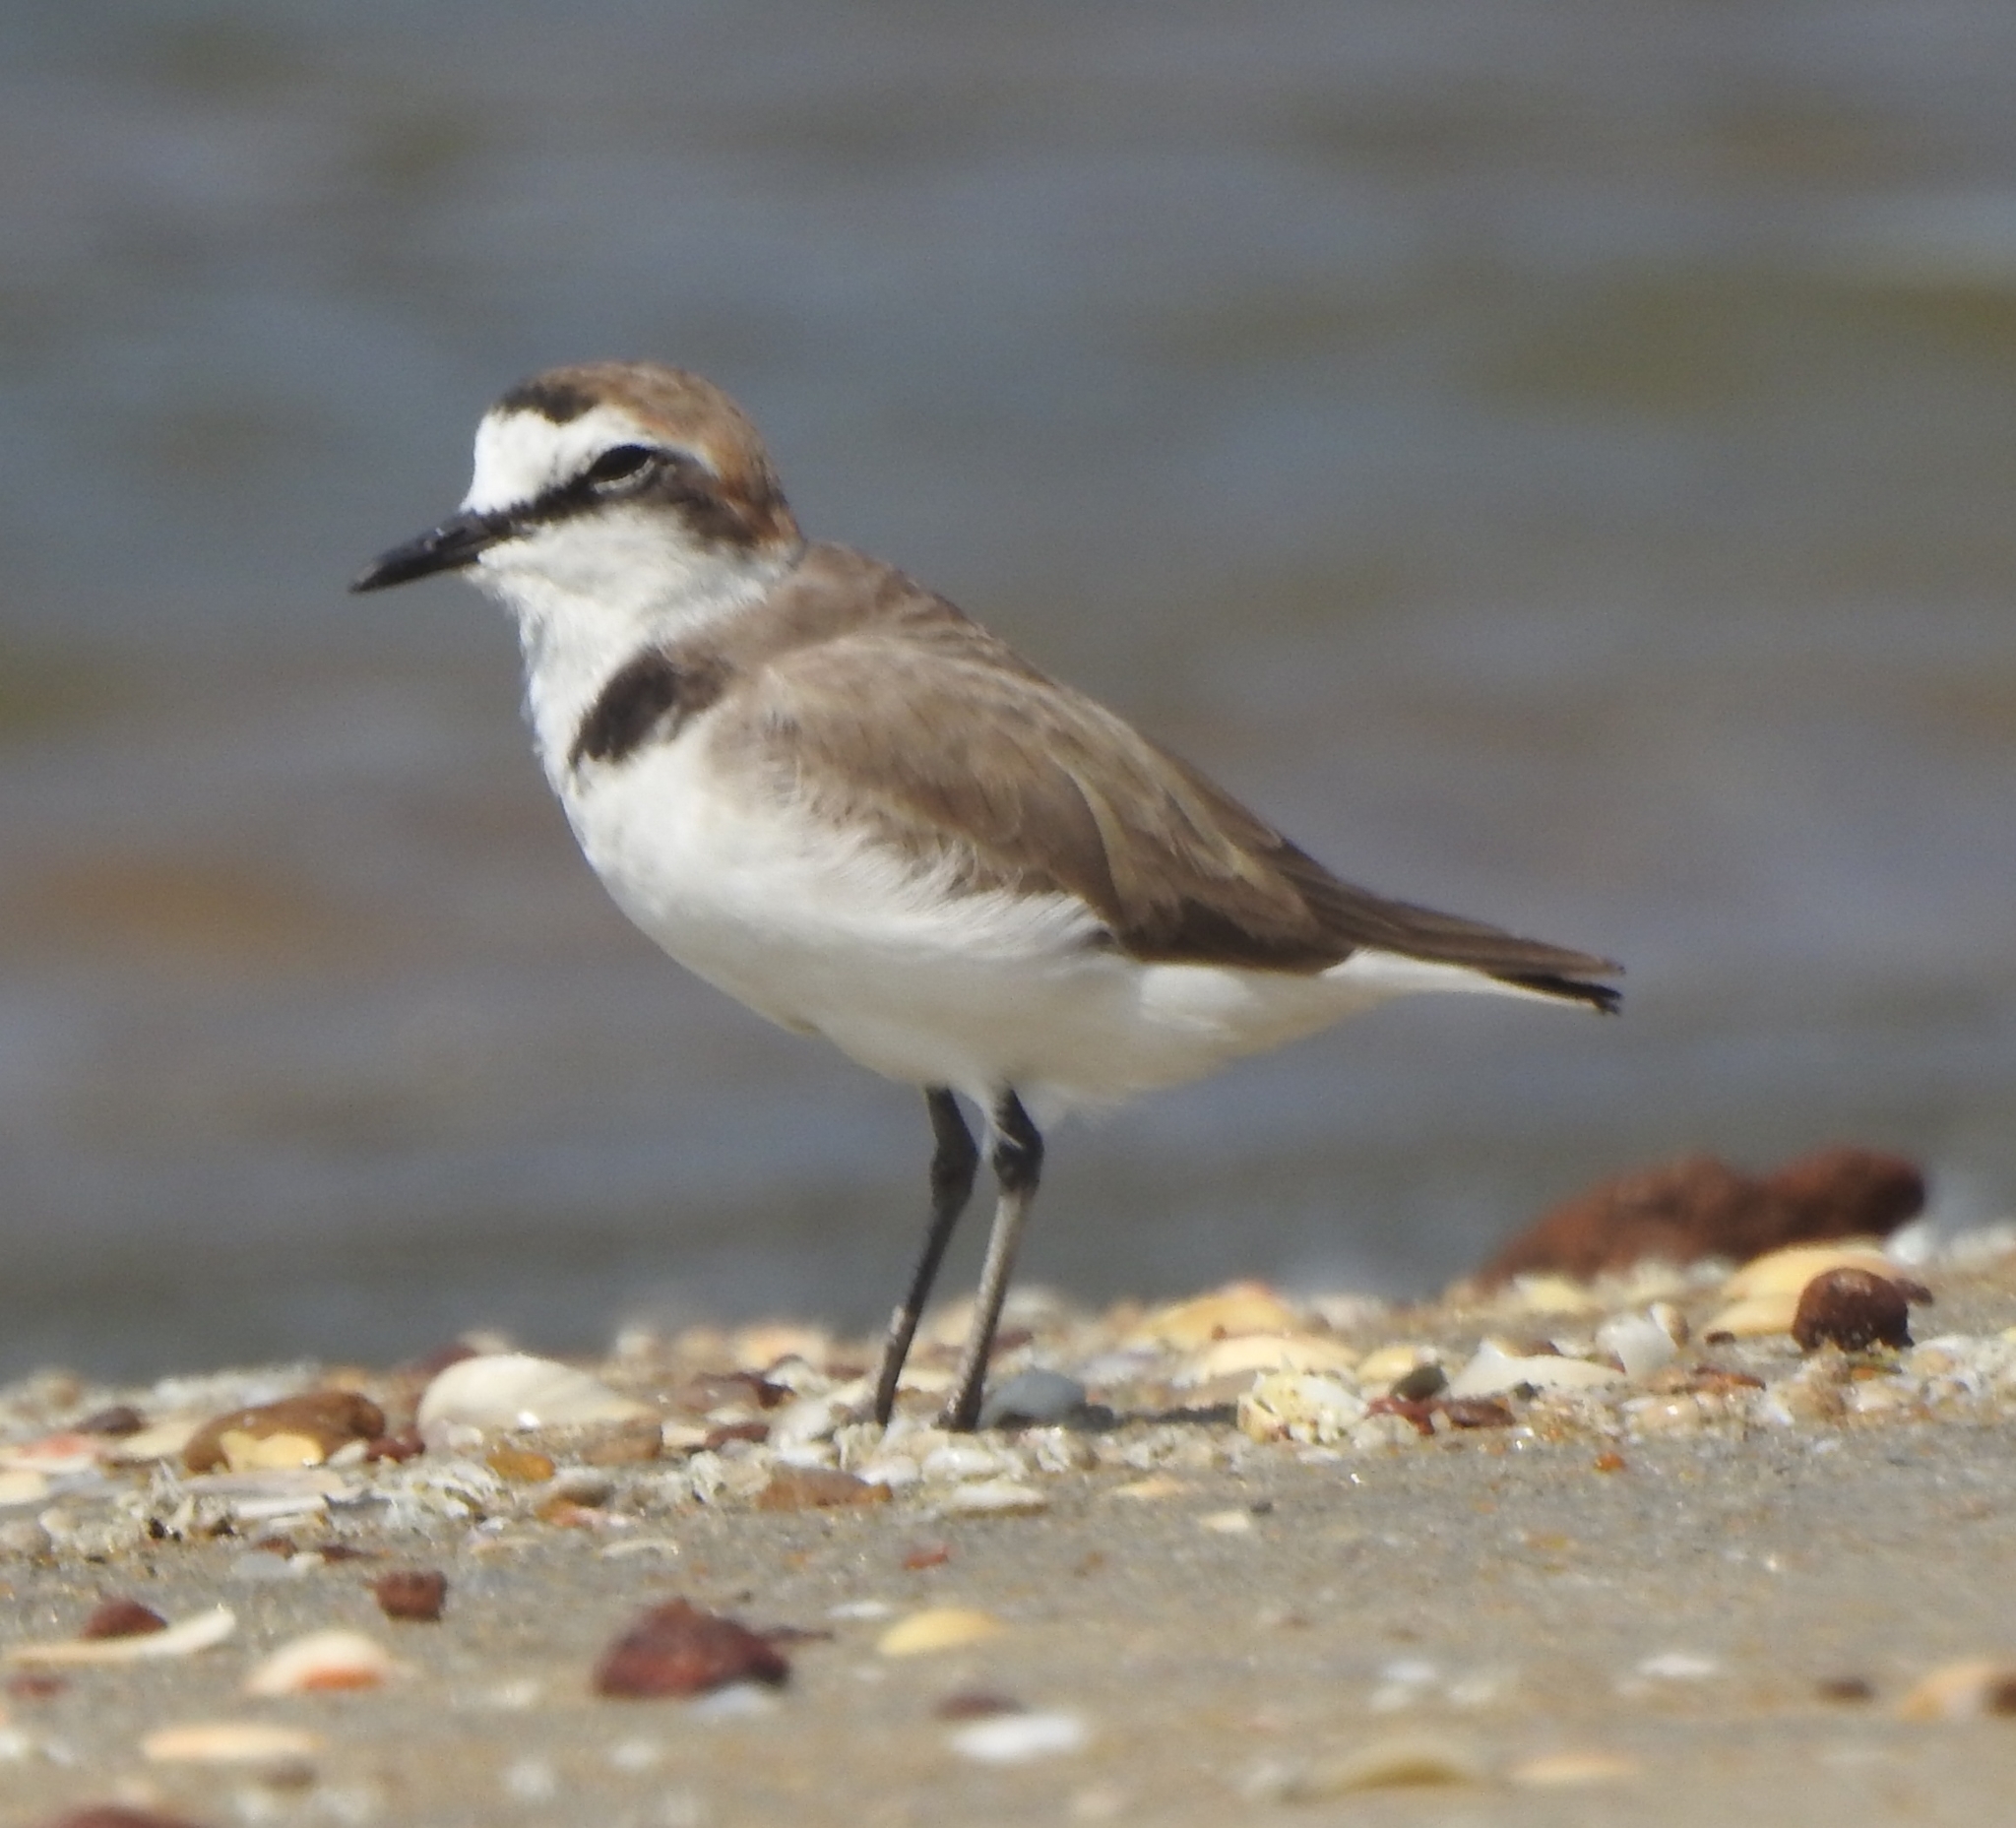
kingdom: Animalia
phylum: Chordata
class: Aves
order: Charadriiformes
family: Charadriidae
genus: Charadrius
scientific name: Charadrius alexandrinus
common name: Kentish plover
